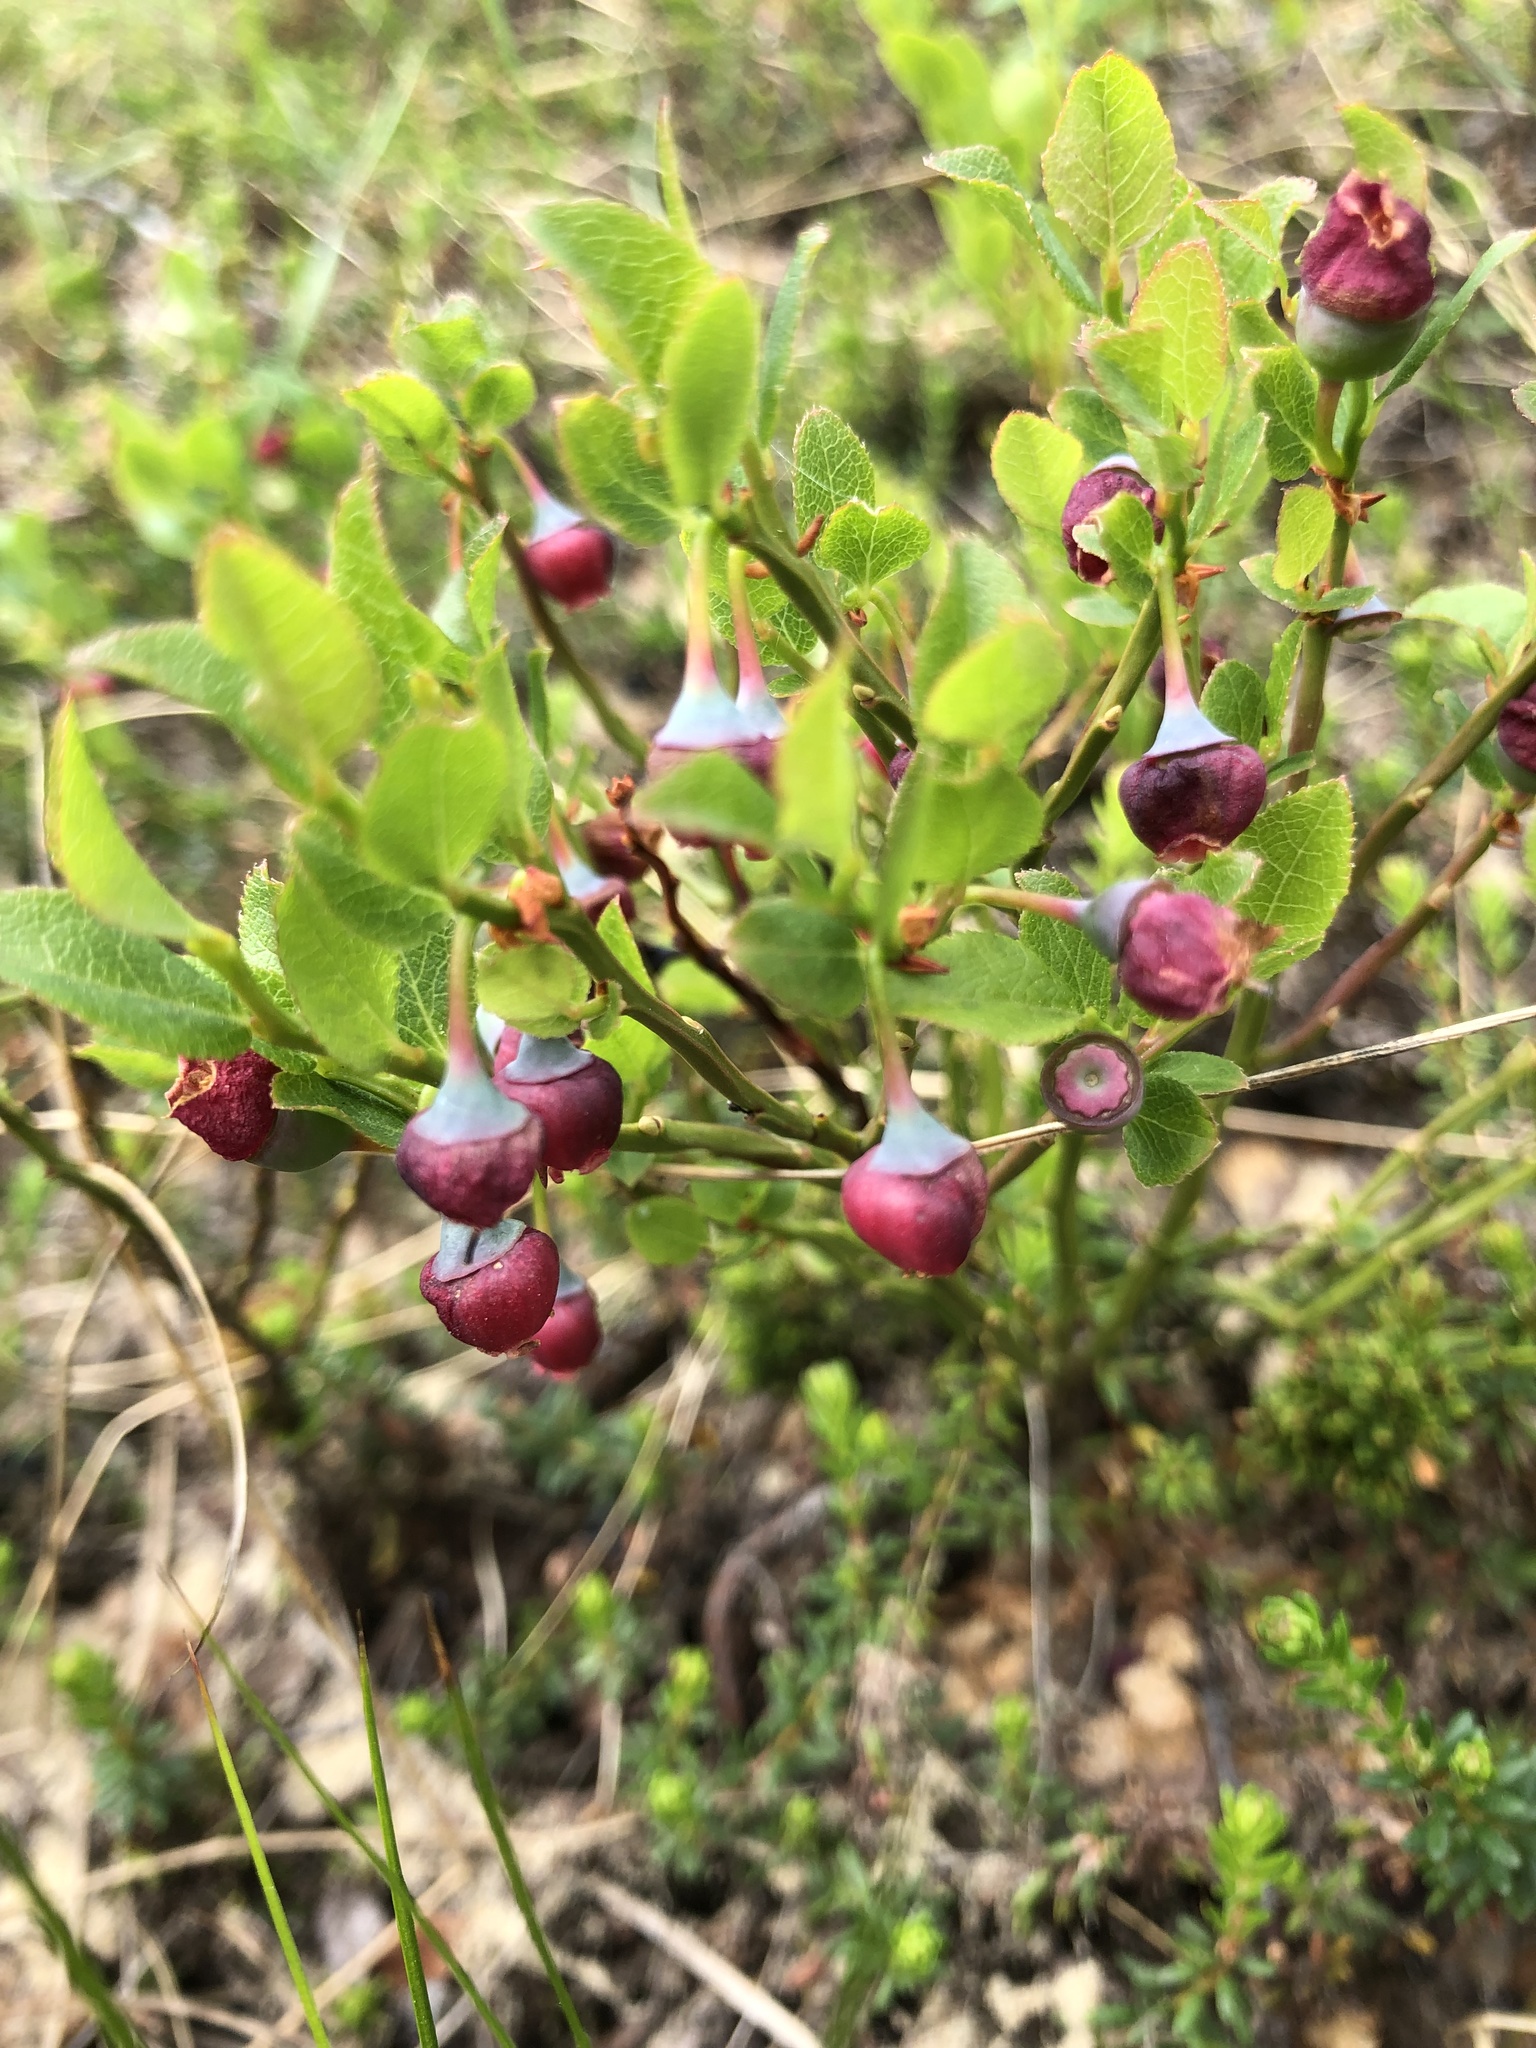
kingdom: Plantae
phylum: Tracheophyta
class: Magnoliopsida
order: Ericales
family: Ericaceae
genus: Vaccinium
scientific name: Vaccinium myrtillus
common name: Bilberry
